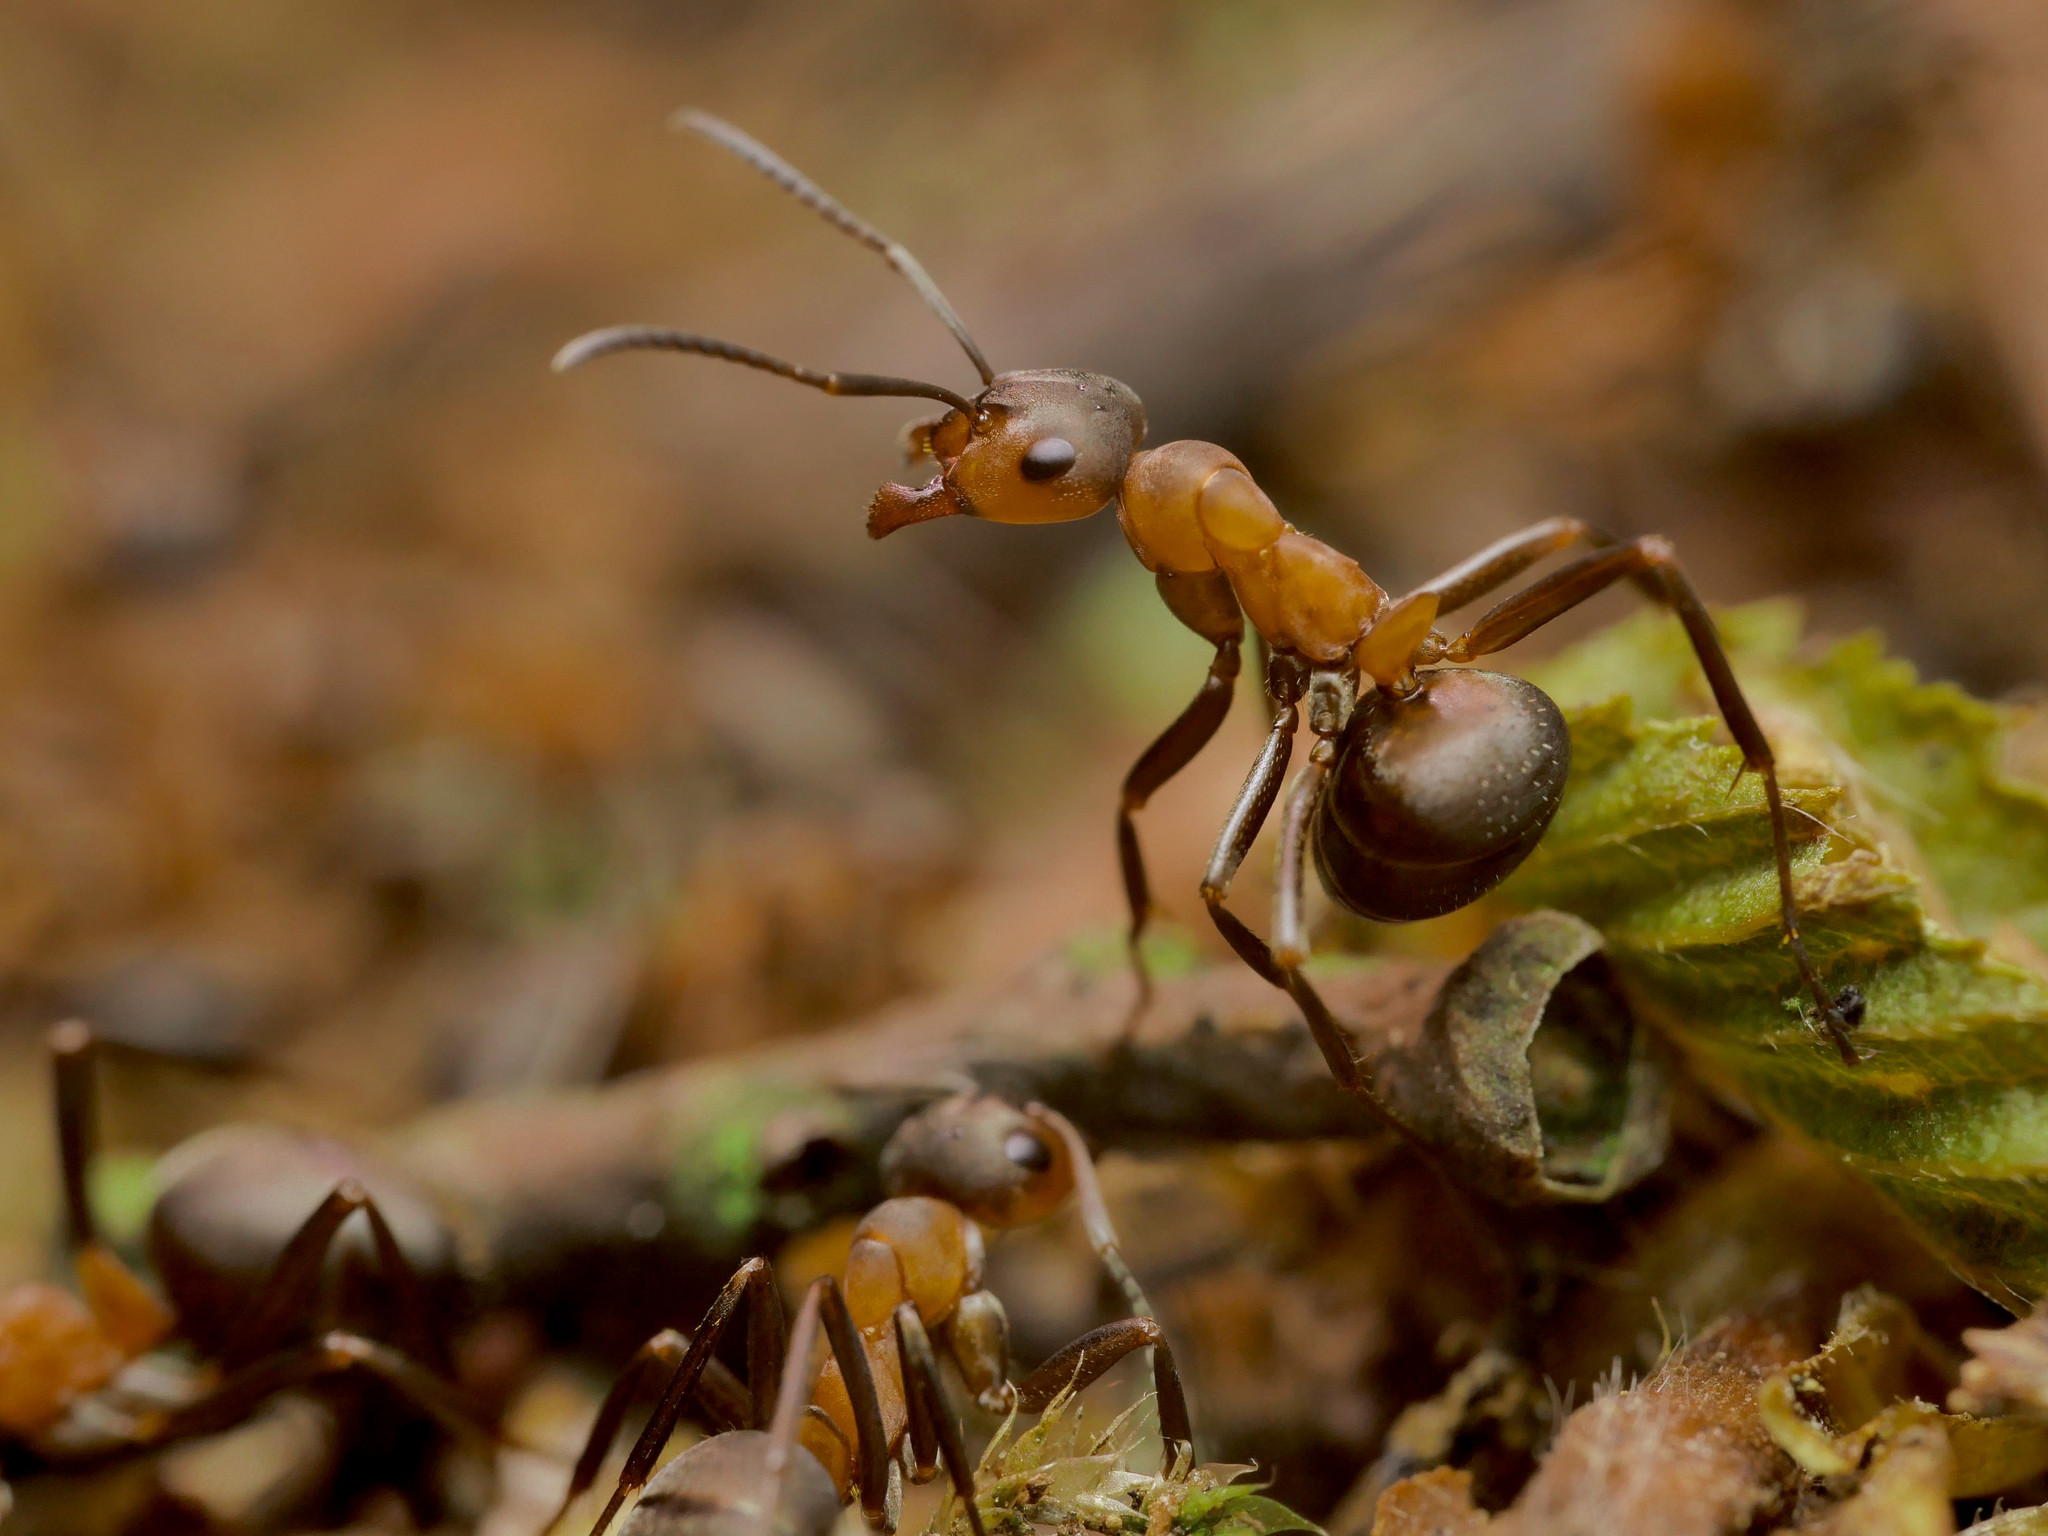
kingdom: Animalia
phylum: Arthropoda
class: Insecta
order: Hymenoptera
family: Formicidae
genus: Formica
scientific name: Formica polyctena
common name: European red wood ant
